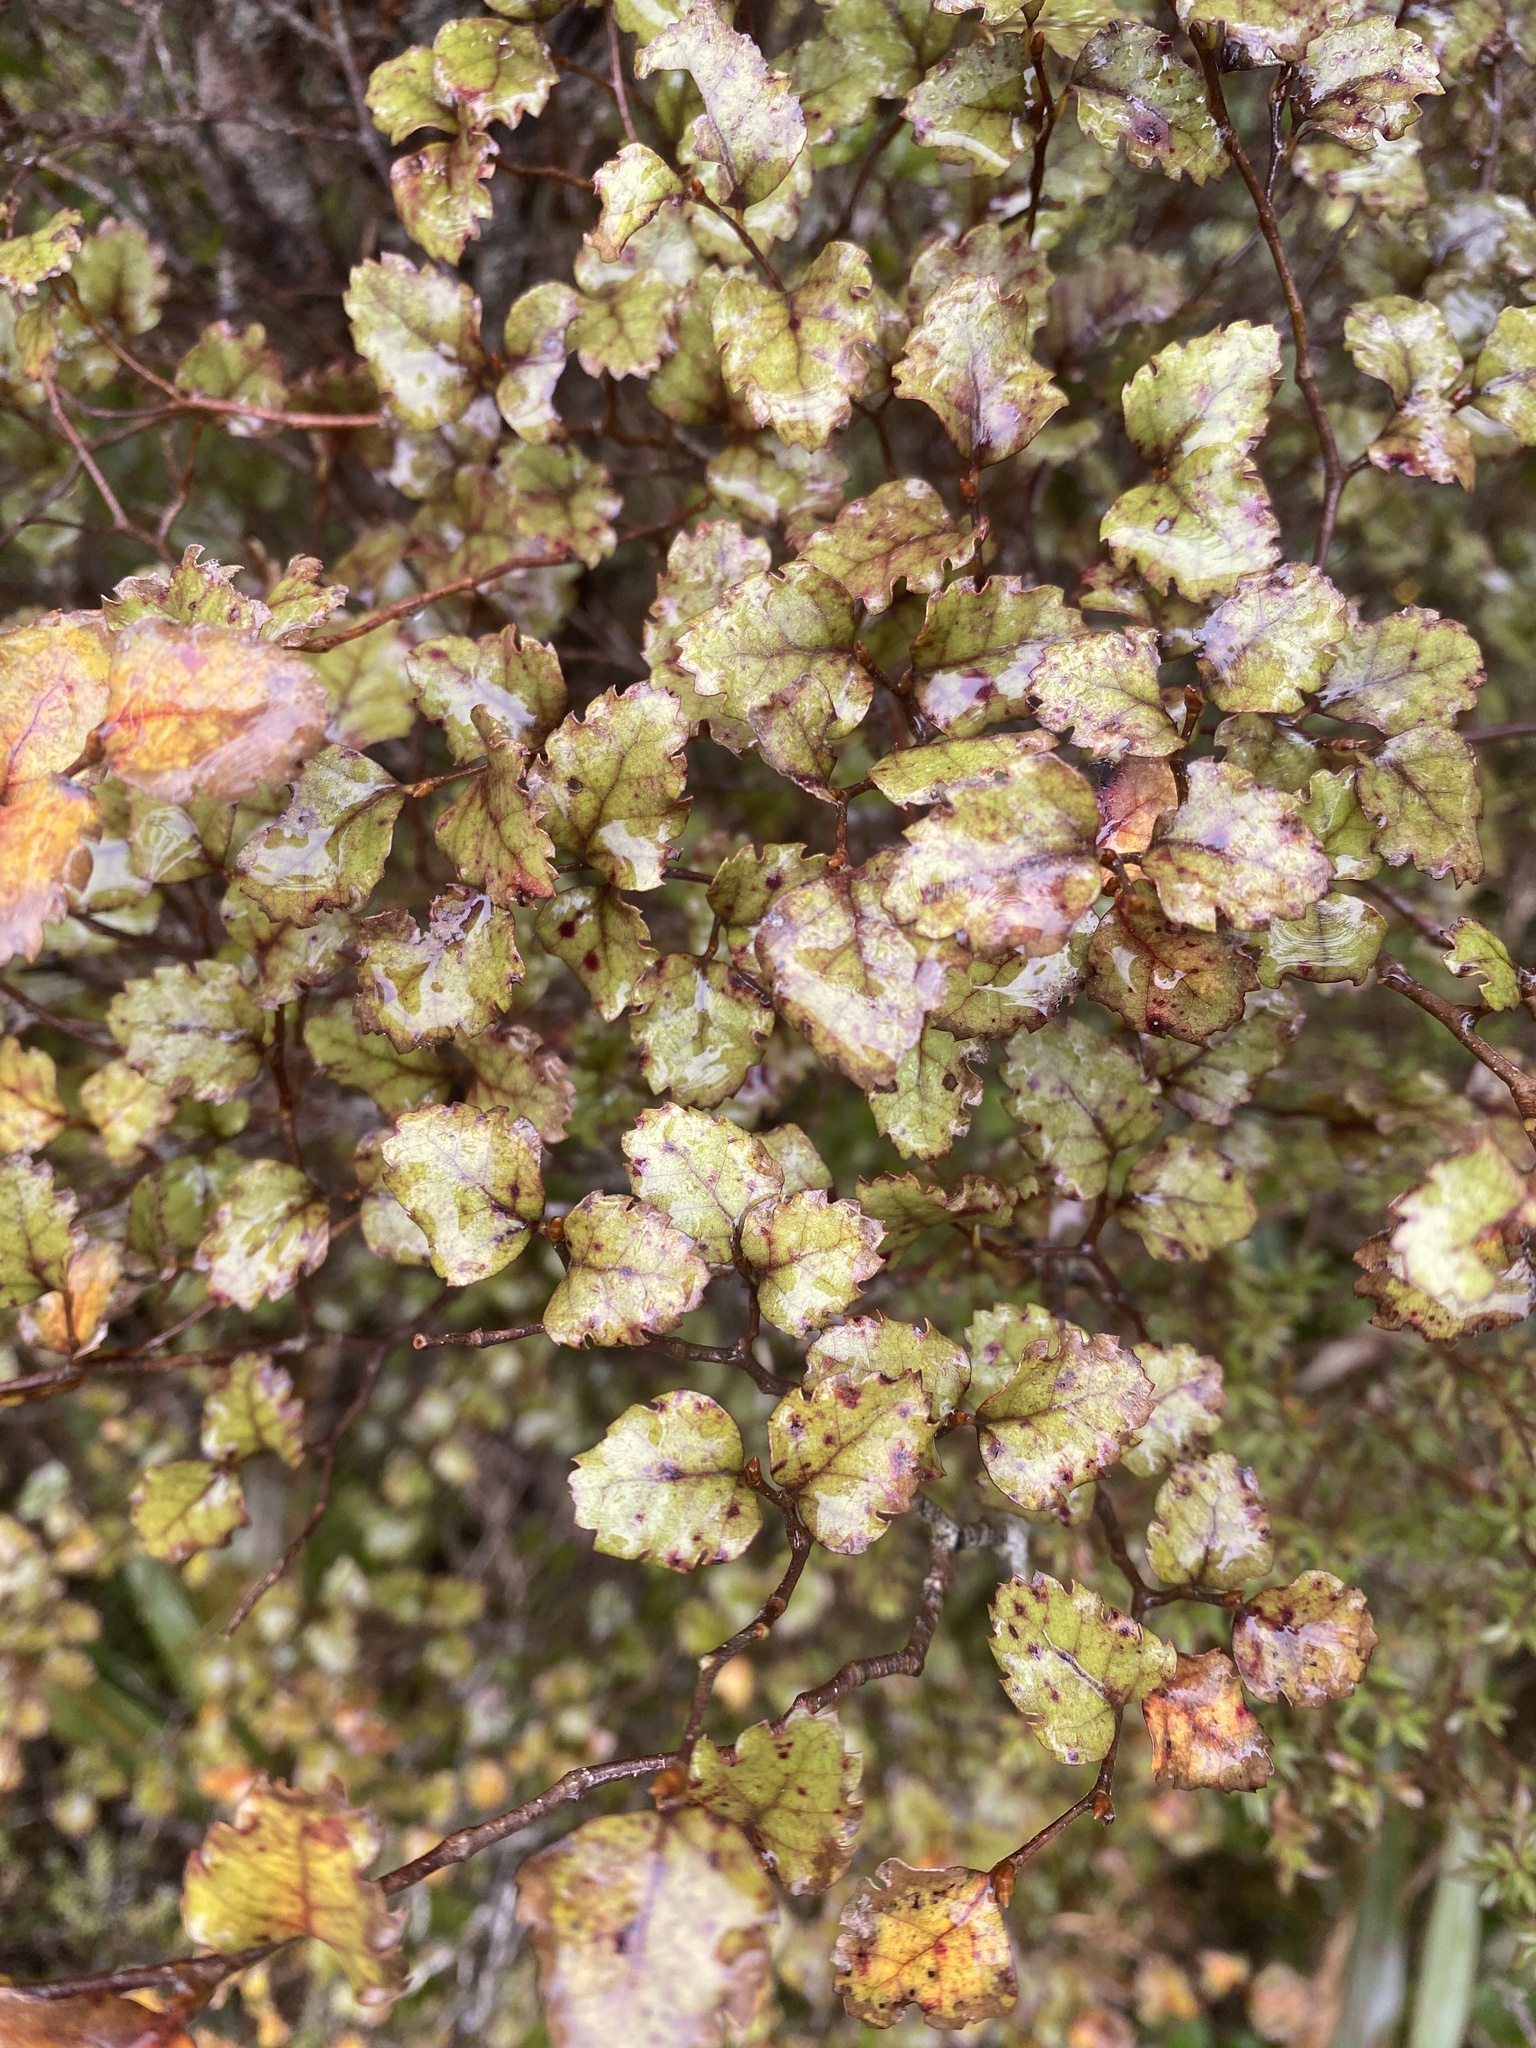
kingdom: Plantae
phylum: Tracheophyta
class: Magnoliopsida
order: Fagales
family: Nothofagaceae
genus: Nothofagus
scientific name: Nothofagus fusca
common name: Red beech
